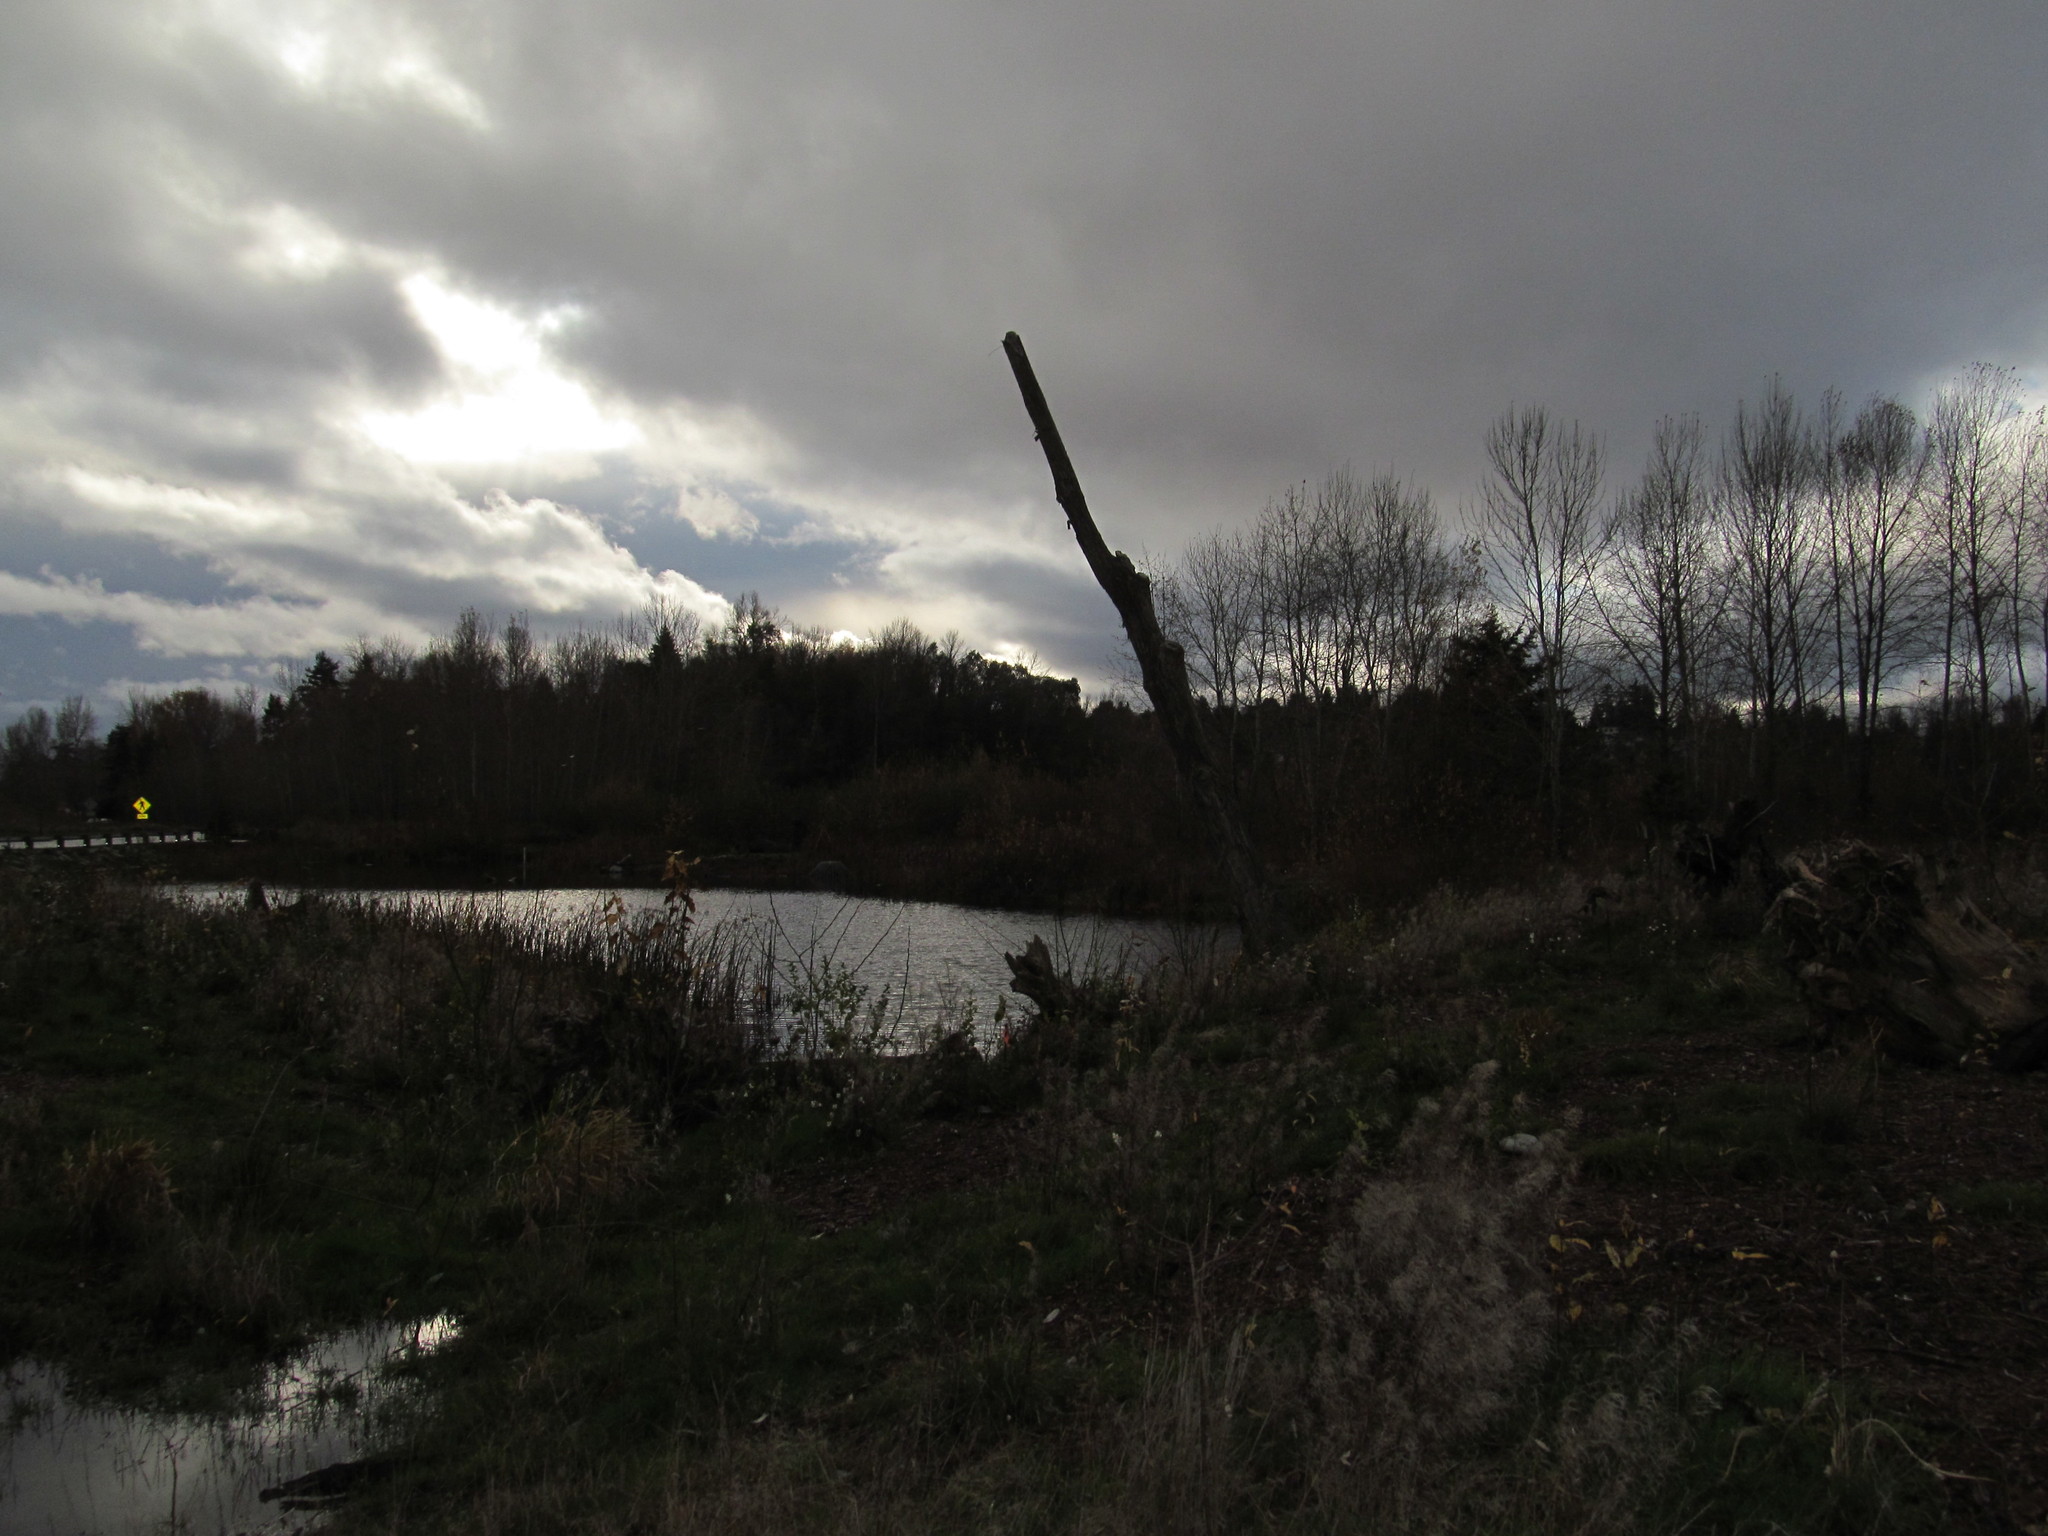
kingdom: Fungi
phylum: Basidiomycota
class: Agaricomycetes
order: Polyporales
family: Meruliaceae
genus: Phlebia
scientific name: Phlebia radiata
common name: Wrinkled crust
